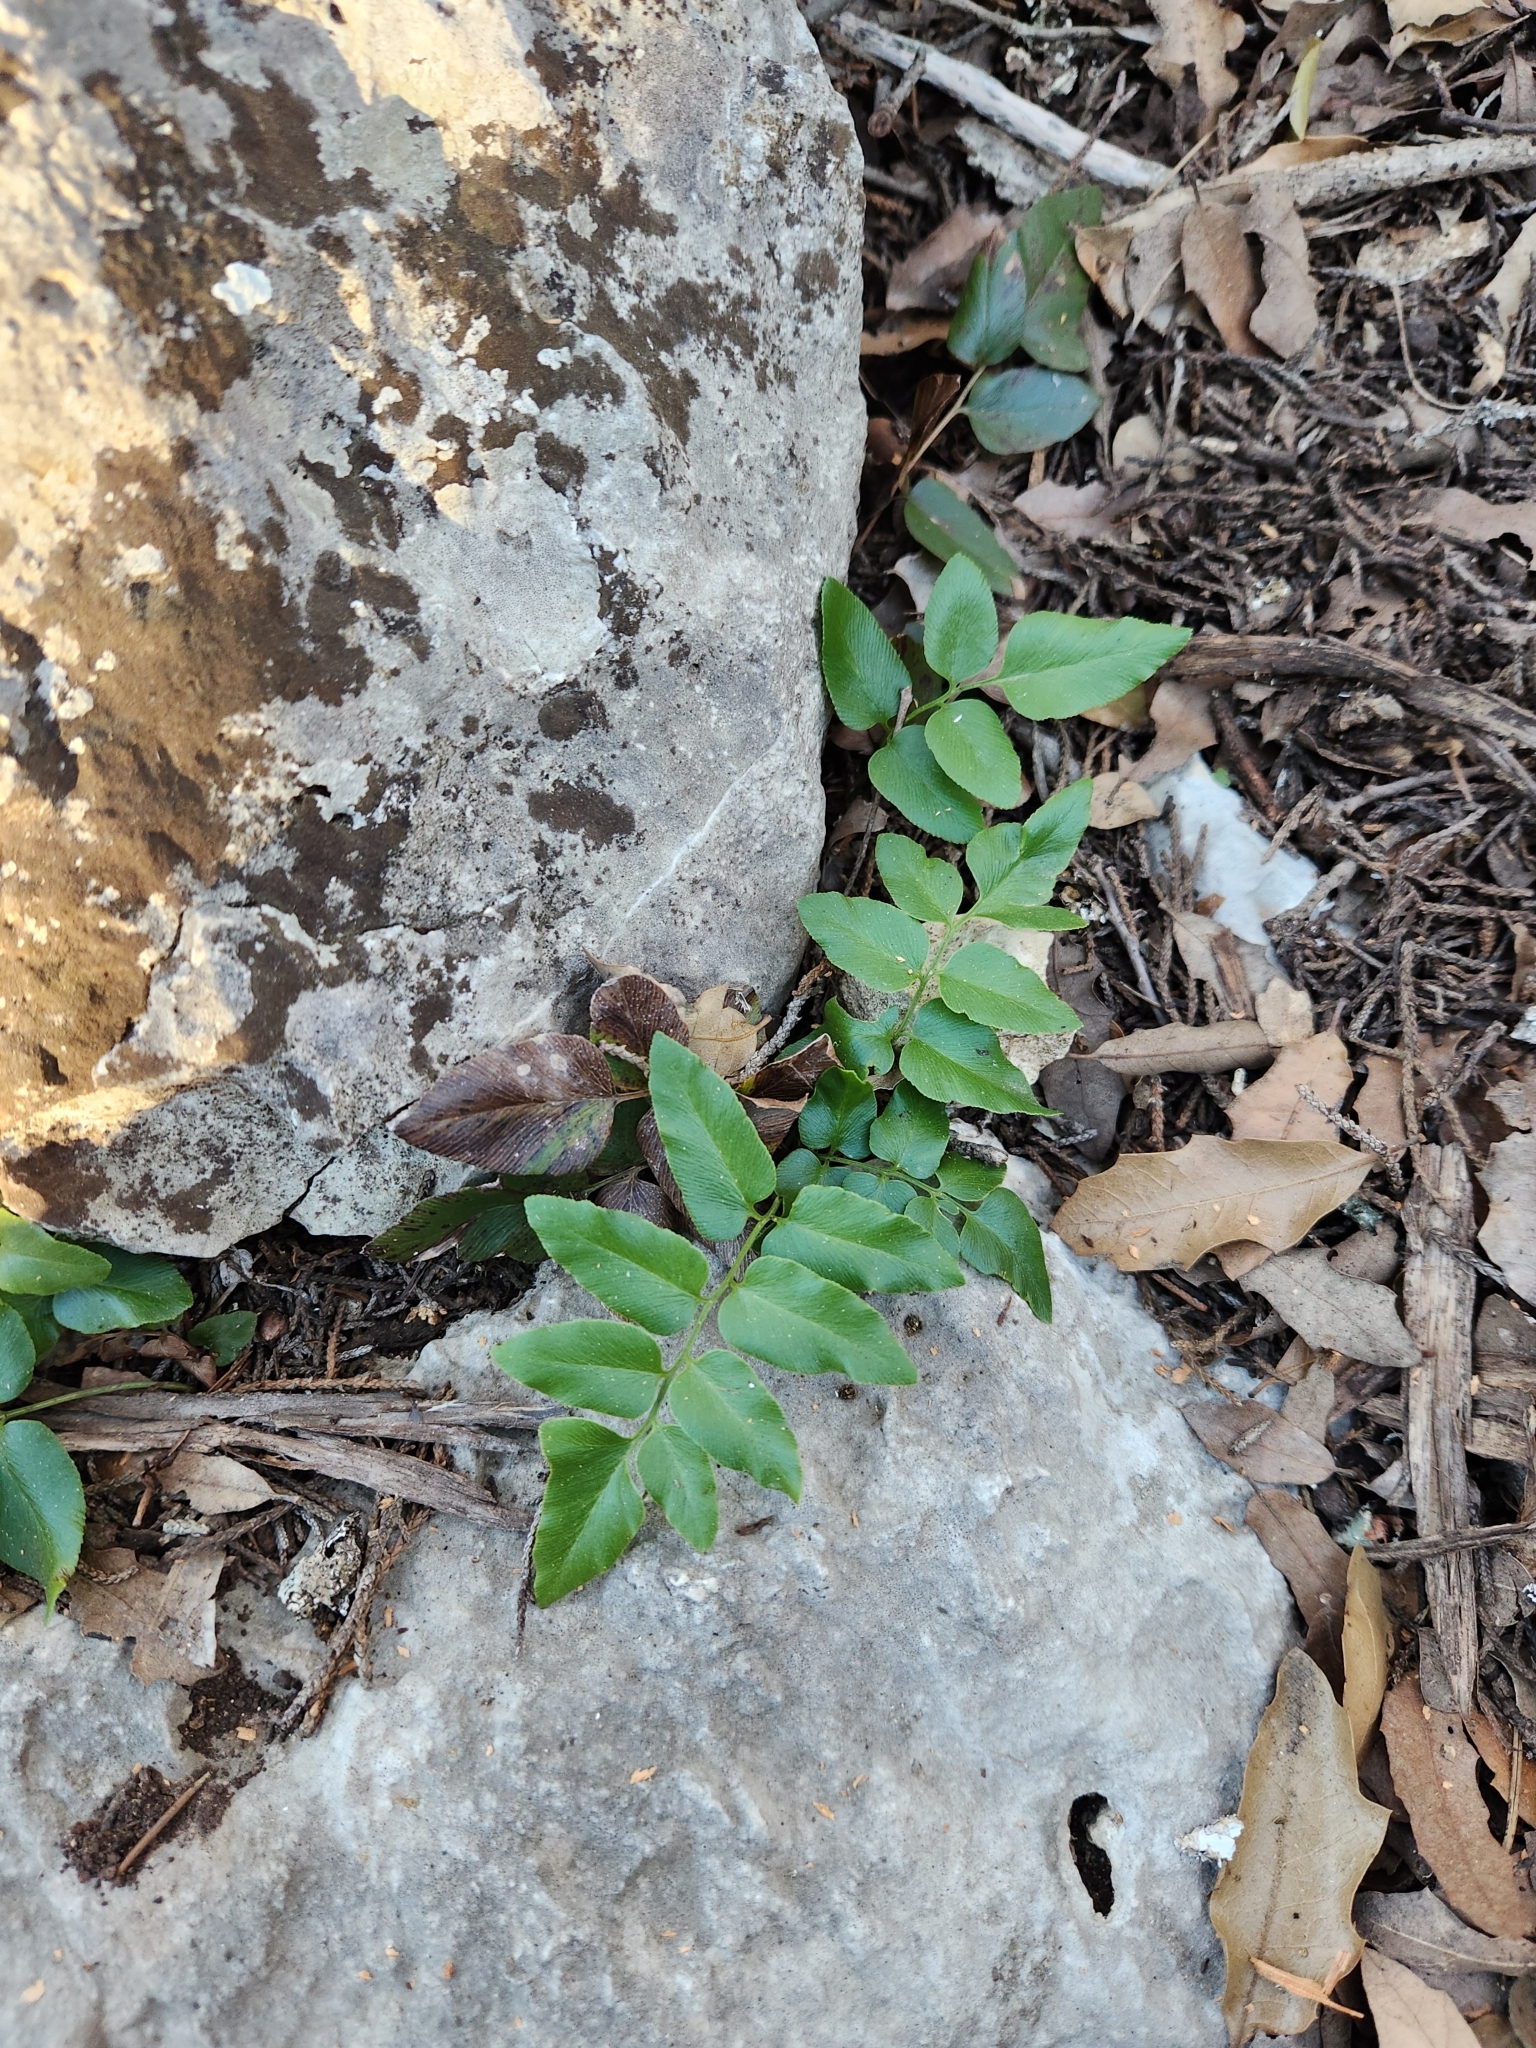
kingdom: Plantae
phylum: Tracheophyta
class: Polypodiopsida
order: Schizaeales
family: Anemiaceae
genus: Anemia
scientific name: Anemia mexicana
